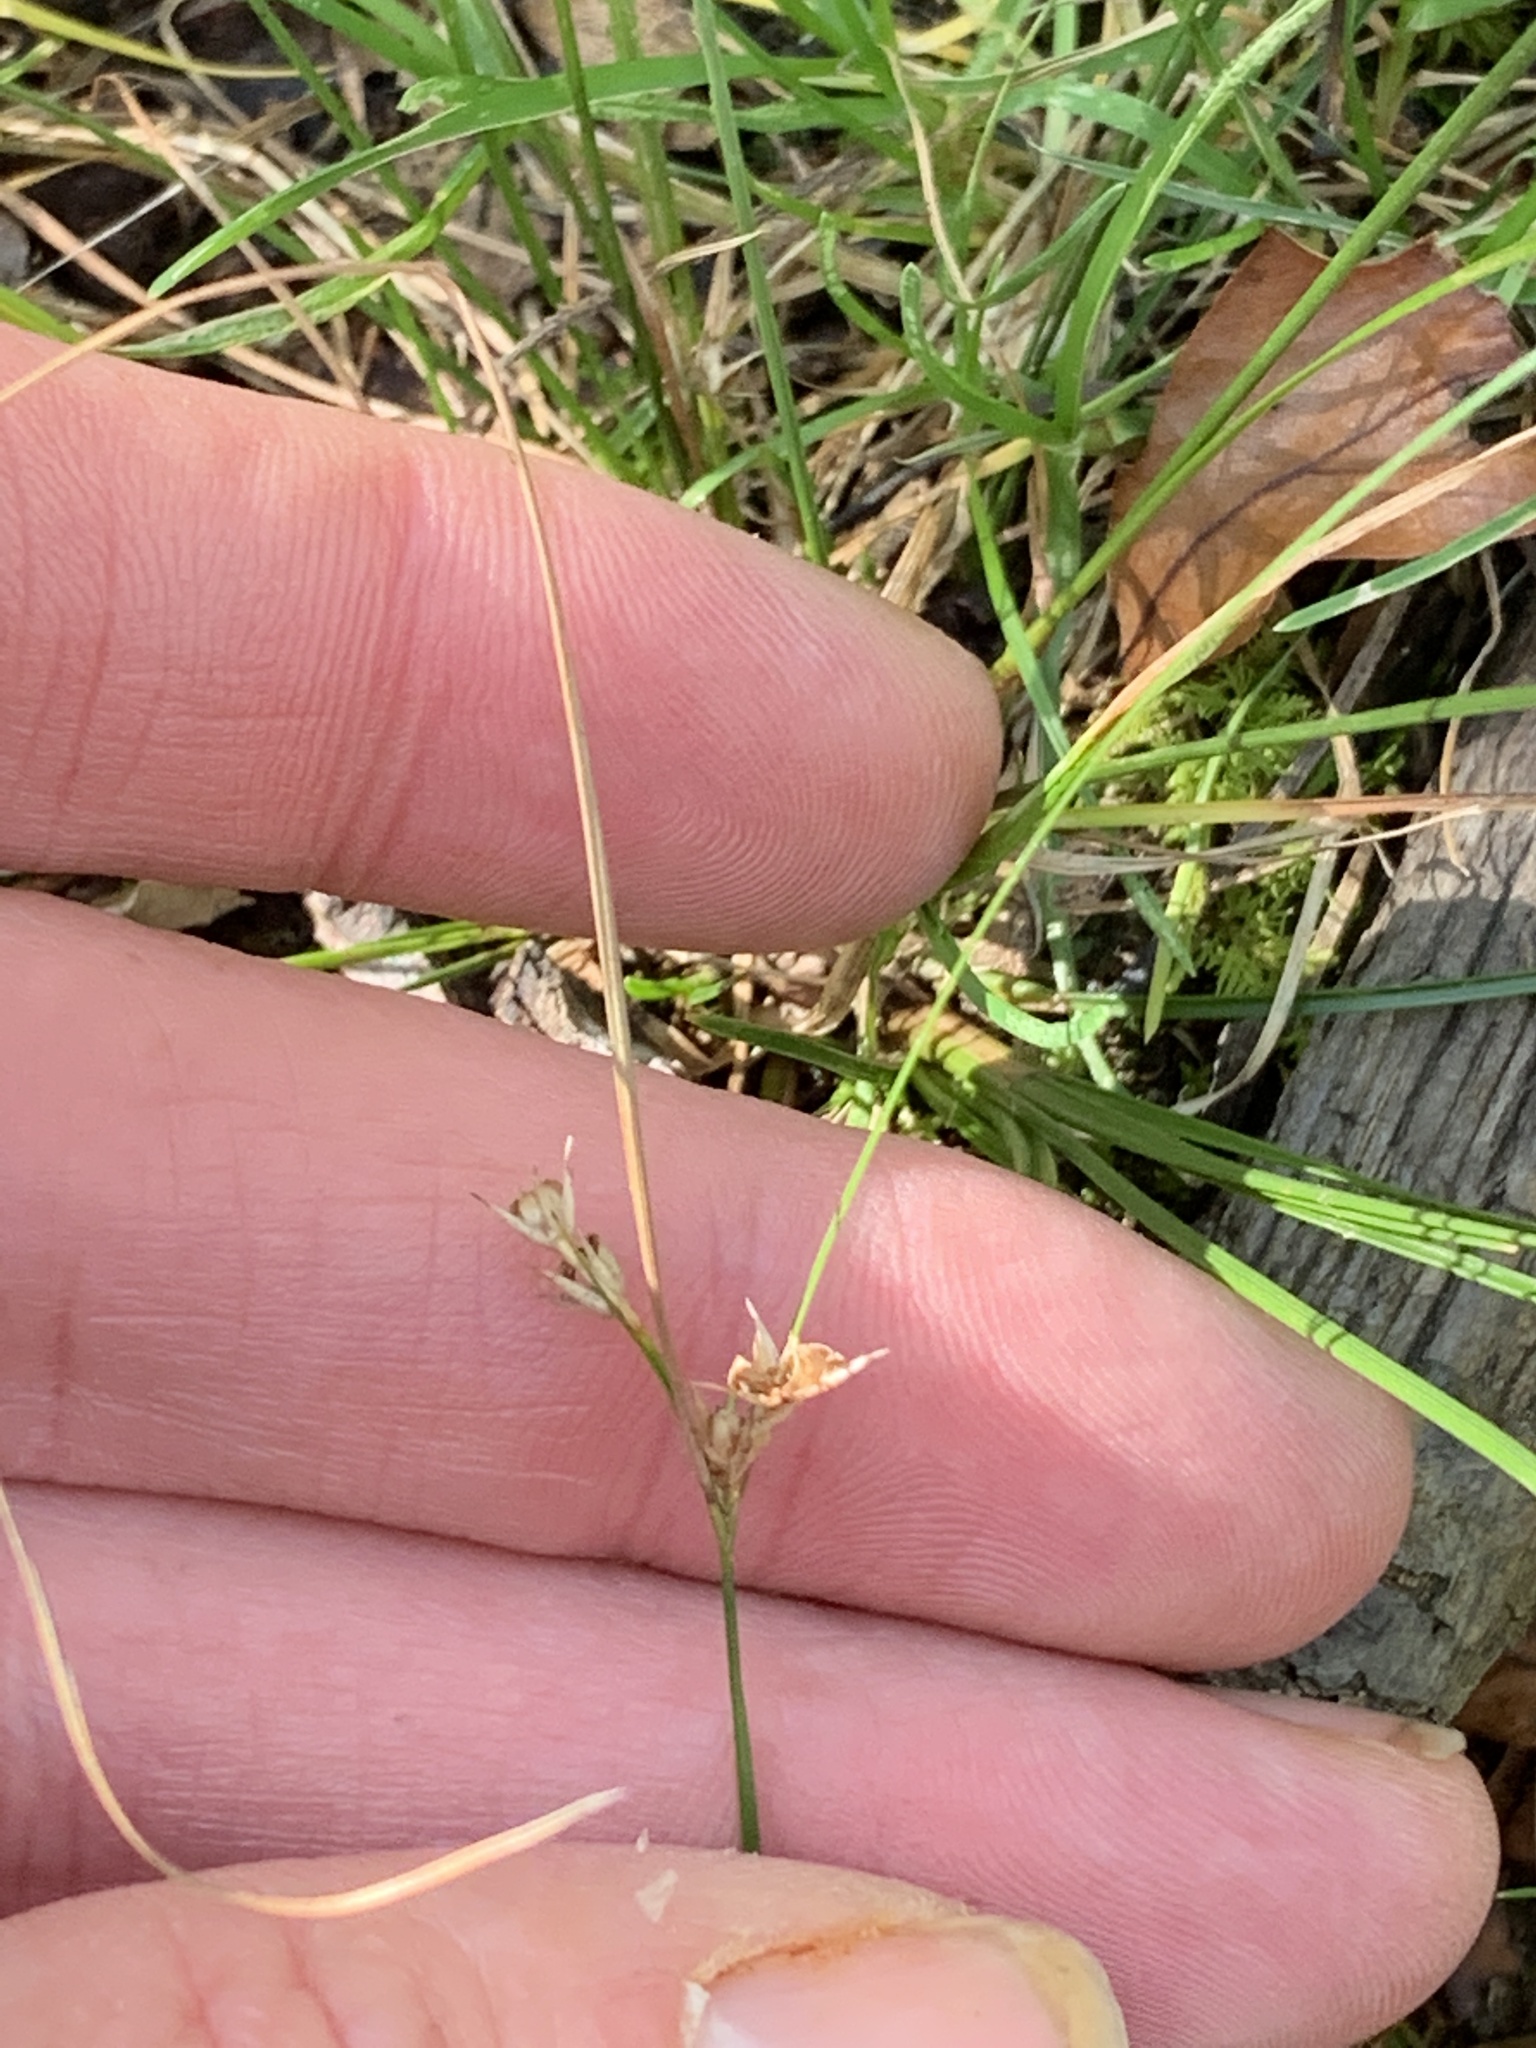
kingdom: Plantae
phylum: Tracheophyta
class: Liliopsida
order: Poales
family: Juncaceae
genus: Juncus
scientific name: Juncus tenuis
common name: Slender rush
